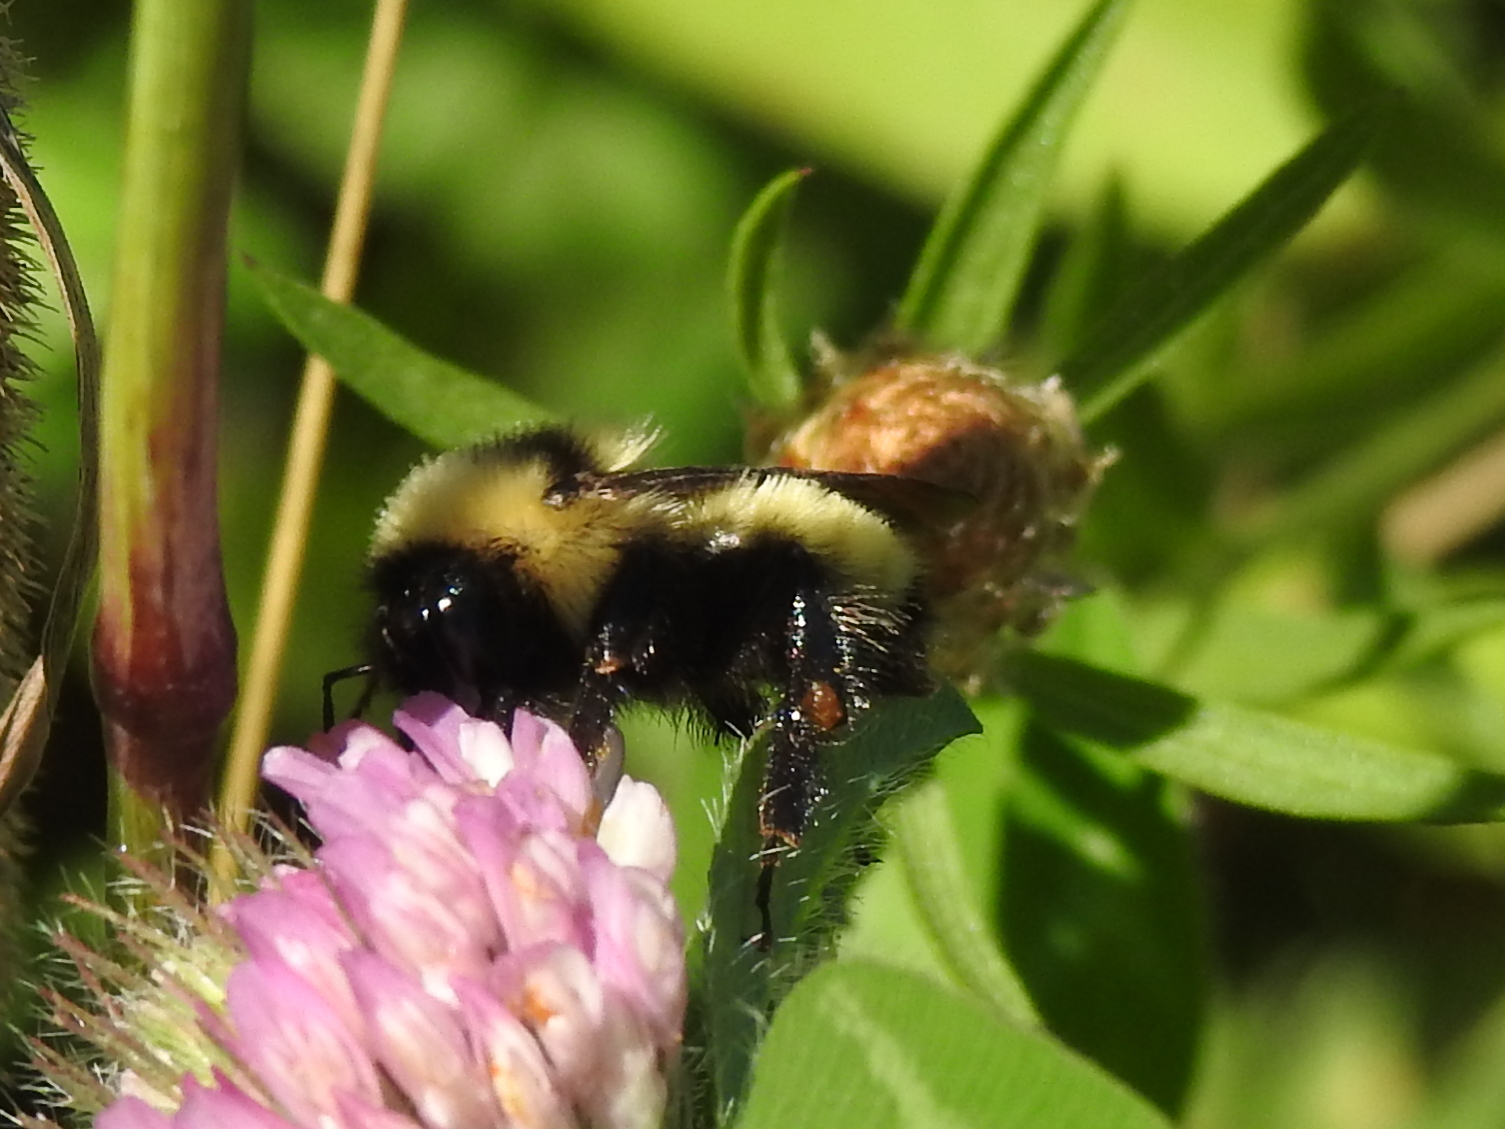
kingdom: Animalia
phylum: Arthropoda
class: Insecta
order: Hymenoptera
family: Apidae
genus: Bombus
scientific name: Bombus fervidus
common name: Yellow bumble bee
